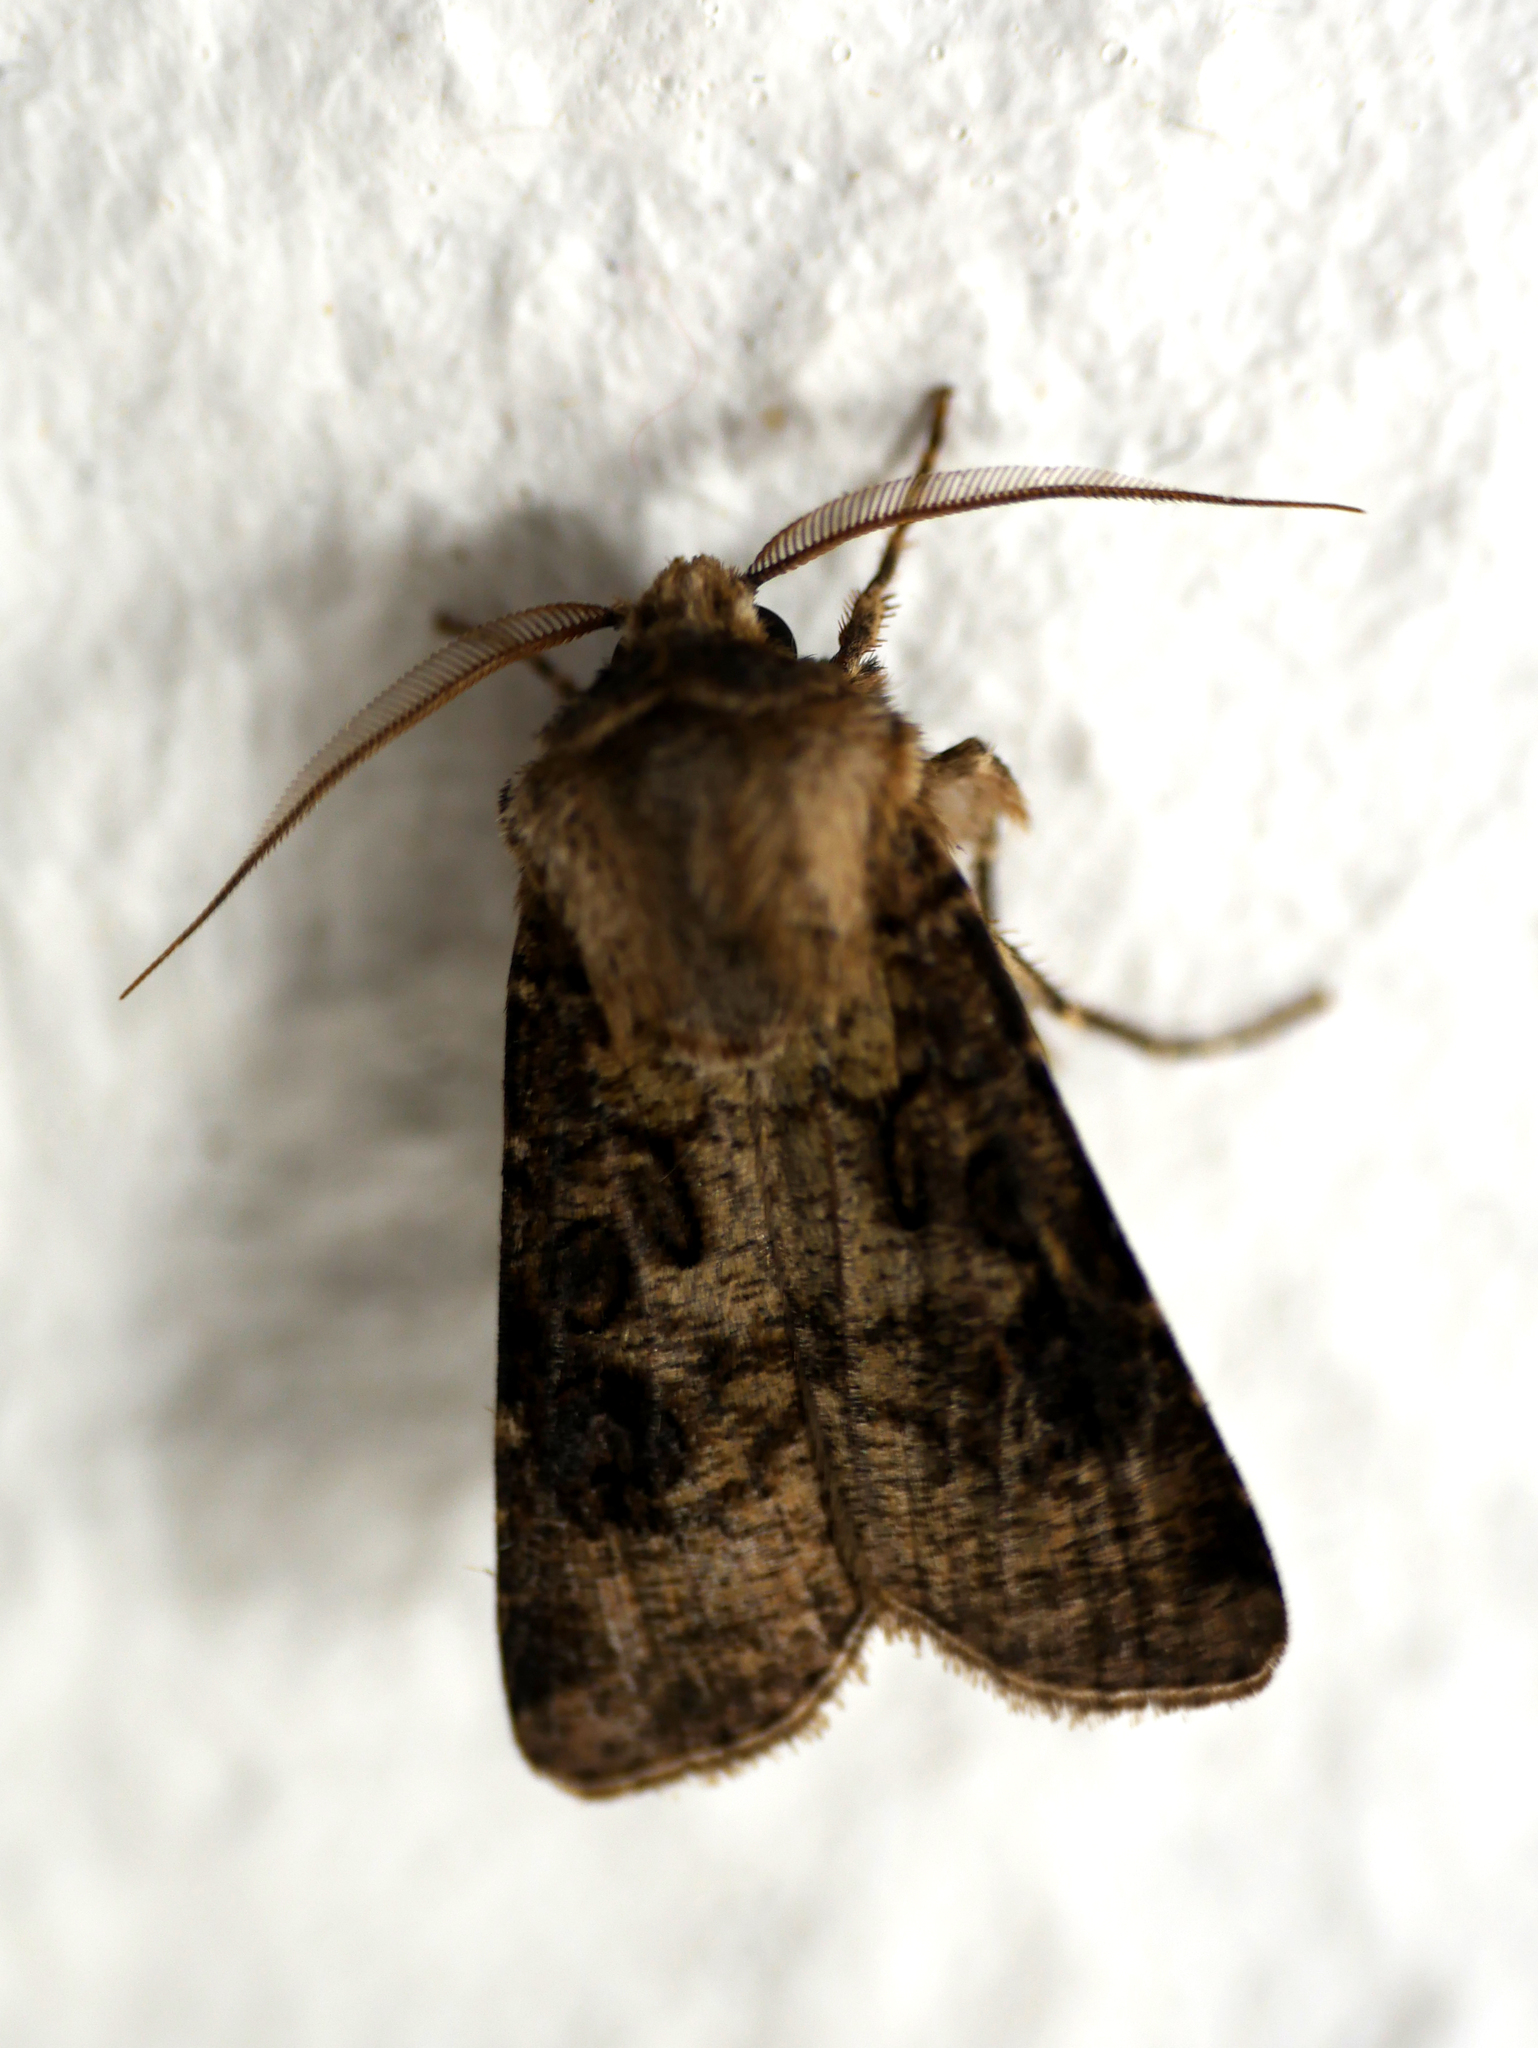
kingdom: Animalia
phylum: Arthropoda
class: Insecta
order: Lepidoptera
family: Noctuidae
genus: Agrotis
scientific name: Agrotis clavis
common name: Heart and club
